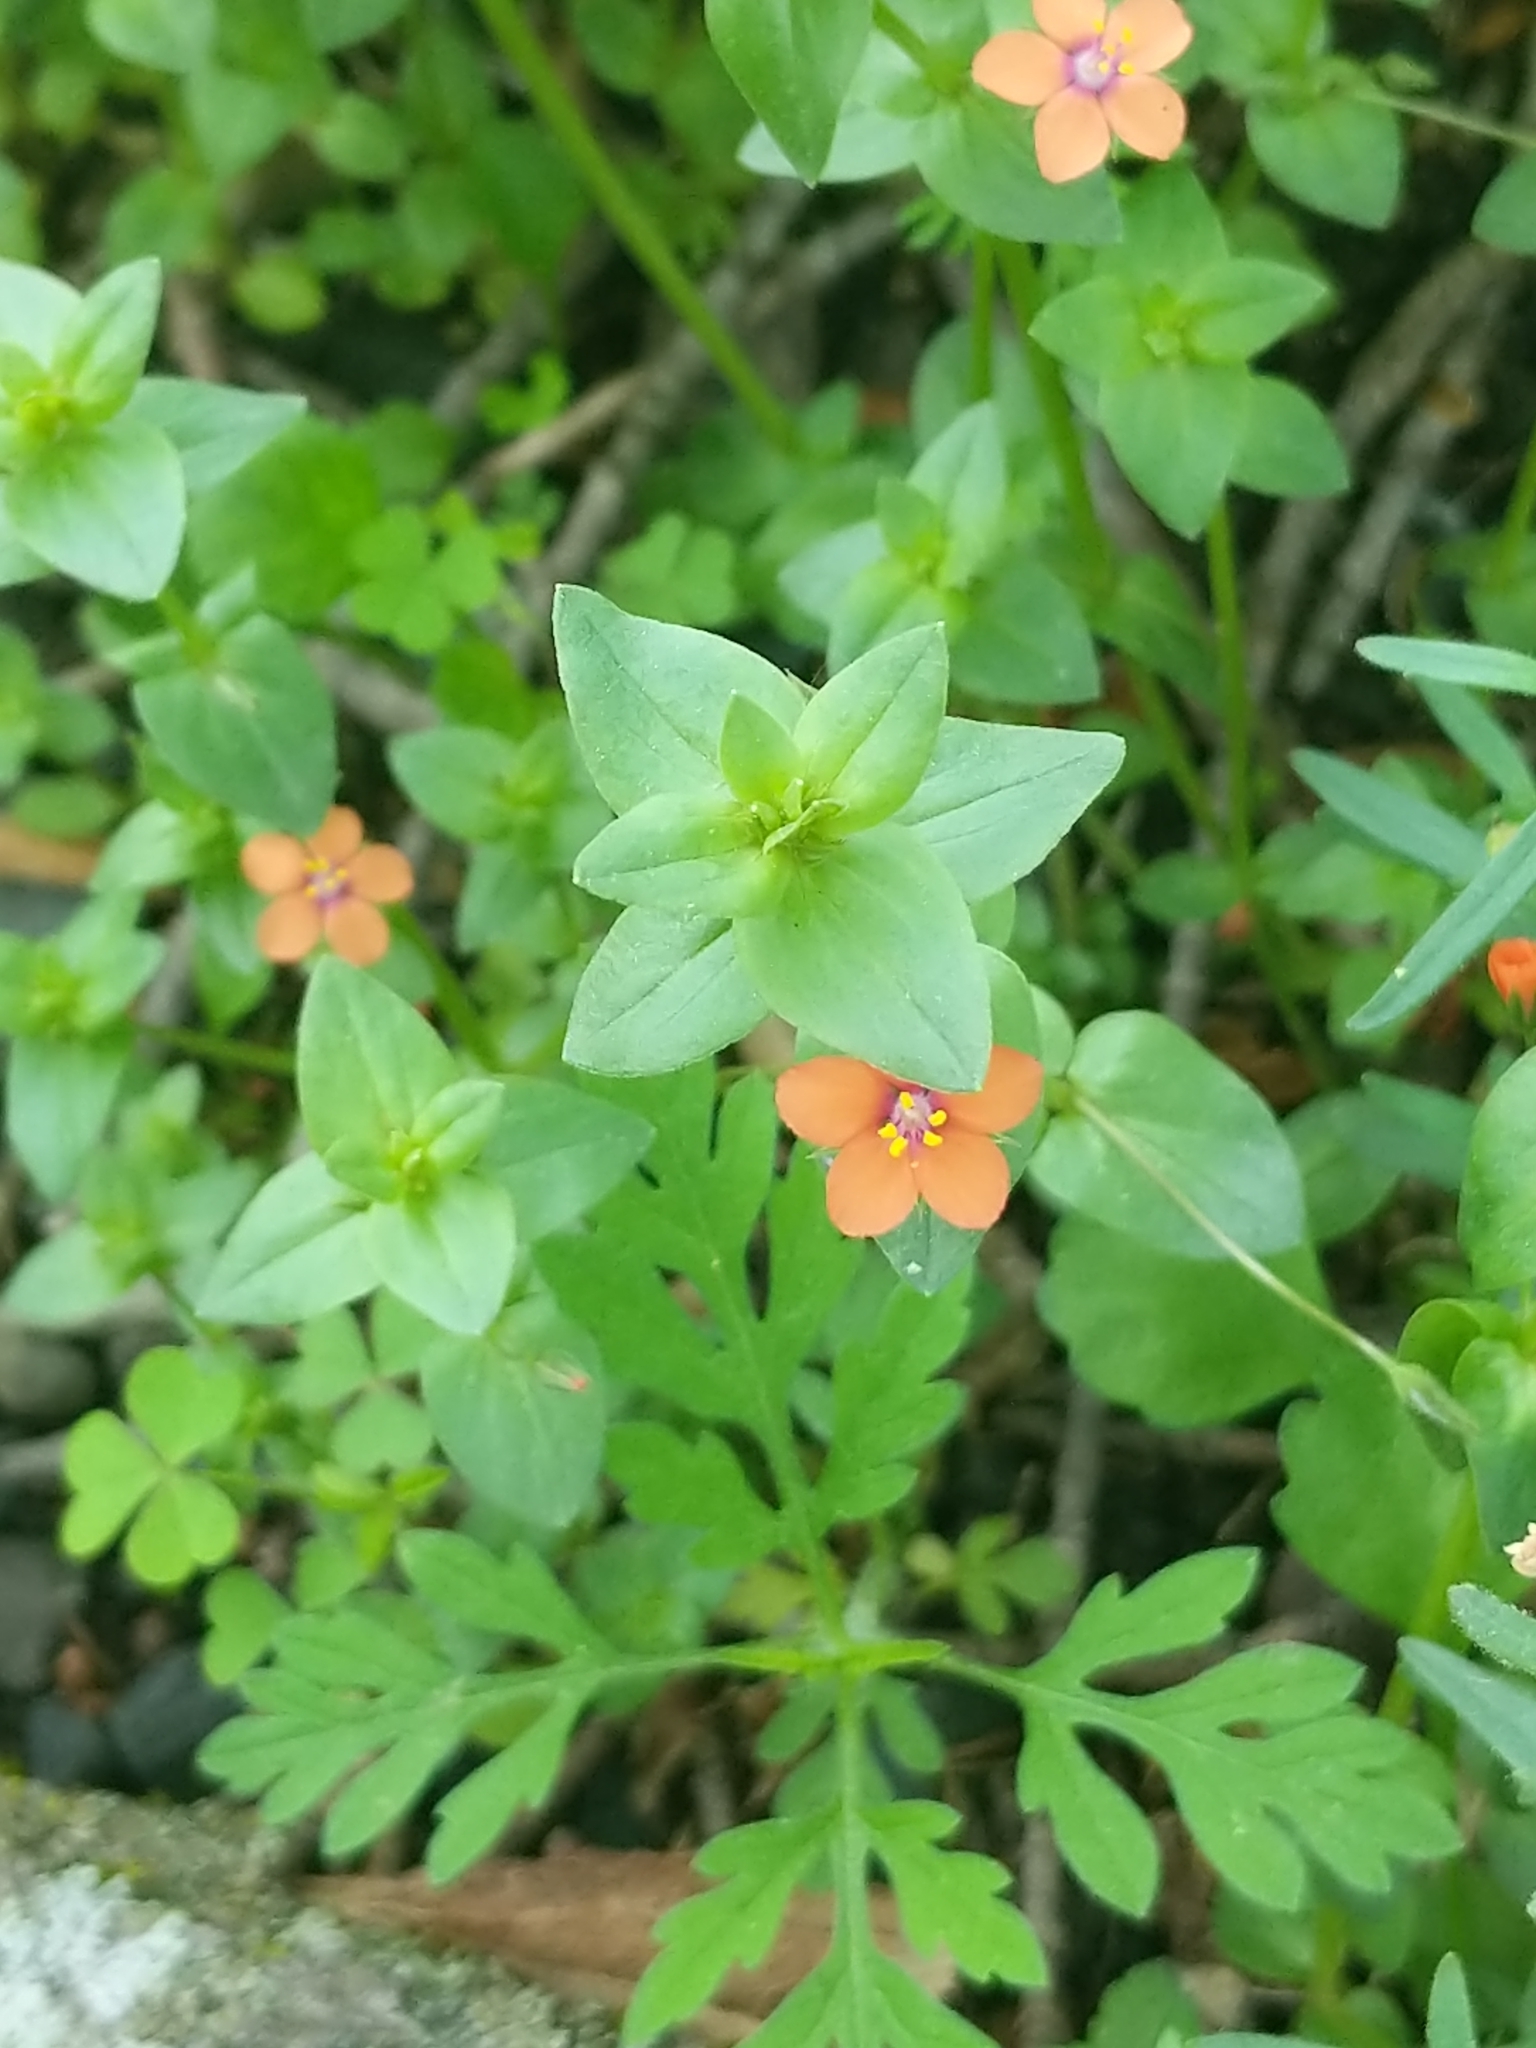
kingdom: Plantae
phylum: Tracheophyta
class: Magnoliopsida
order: Ericales
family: Primulaceae
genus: Lysimachia
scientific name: Lysimachia arvensis
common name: Scarlet pimpernel
